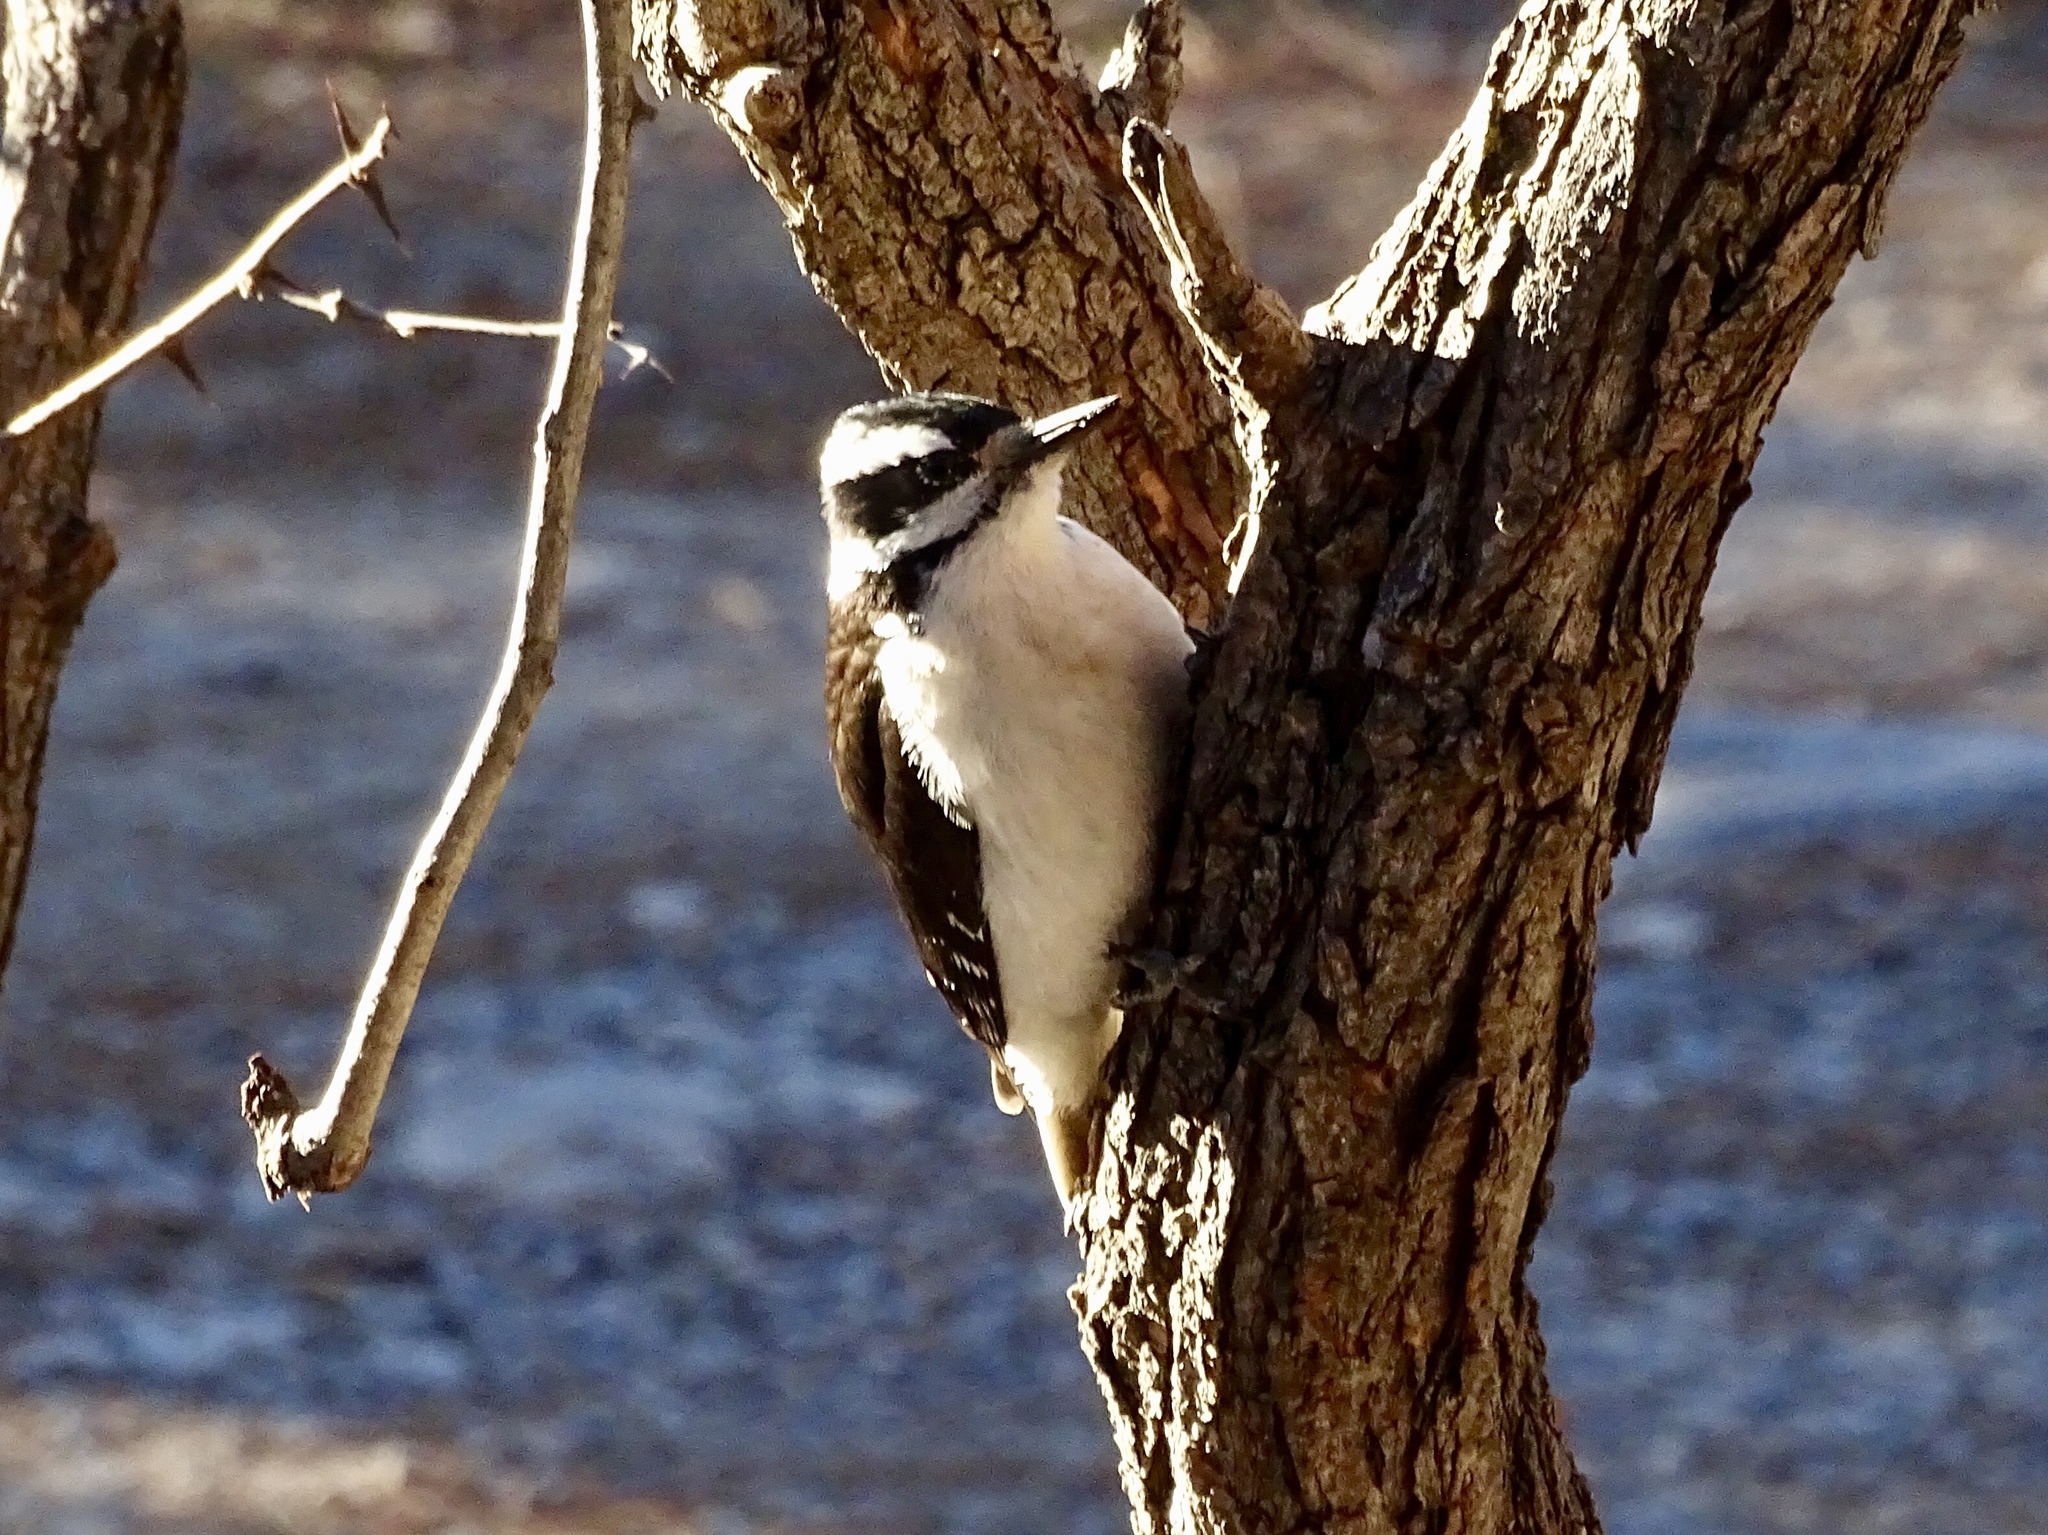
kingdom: Animalia
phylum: Chordata
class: Aves
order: Piciformes
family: Picidae
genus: Leuconotopicus
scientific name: Leuconotopicus villosus
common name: Hairy woodpecker
